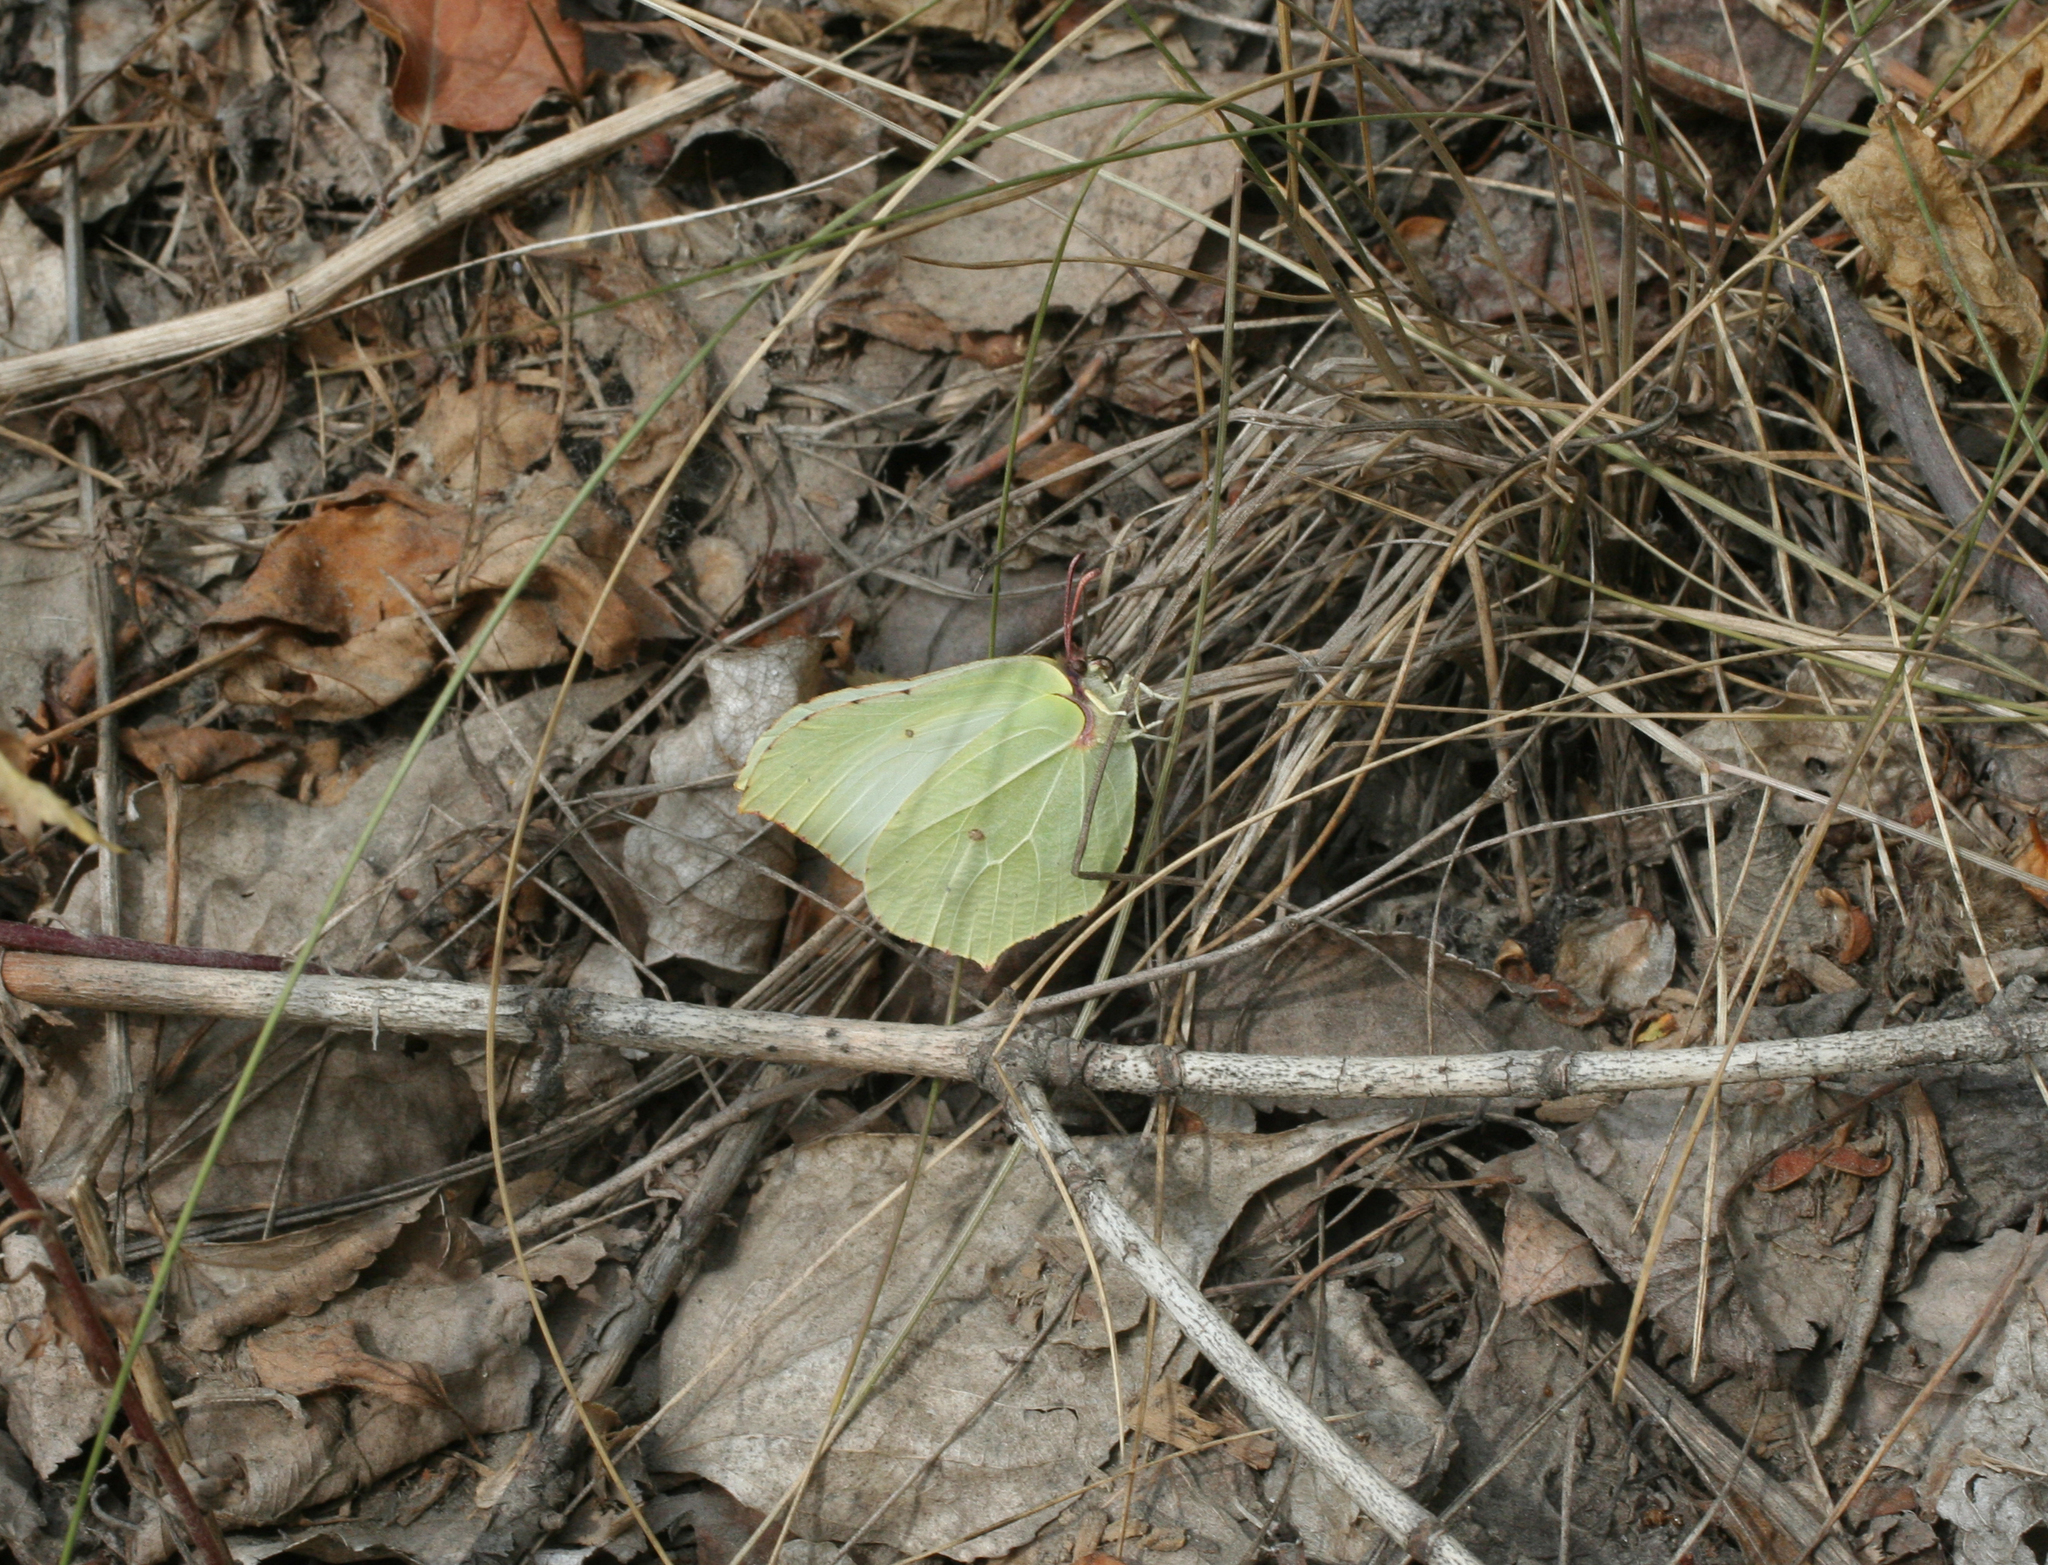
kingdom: Animalia
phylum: Arthropoda
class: Insecta
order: Lepidoptera
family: Pieridae
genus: Gonepteryx
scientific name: Gonepteryx rhamni
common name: Brimstone
